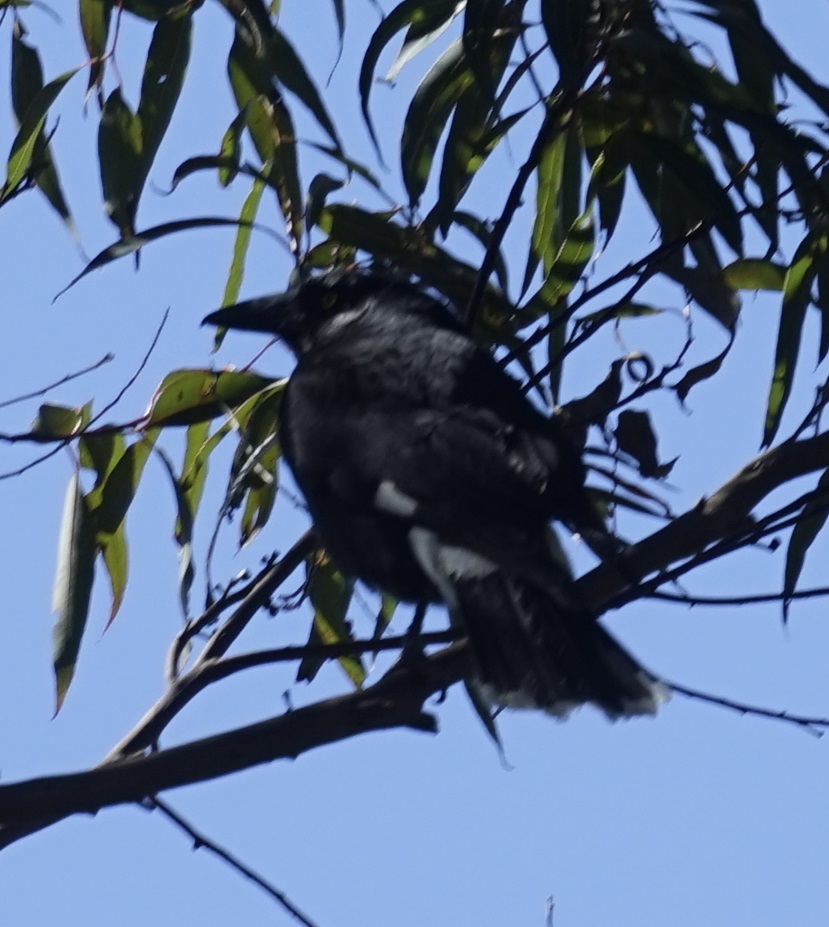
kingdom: Animalia
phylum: Chordata
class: Aves
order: Passeriformes
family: Cracticidae
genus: Strepera
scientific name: Strepera graculina
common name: Pied currawong
